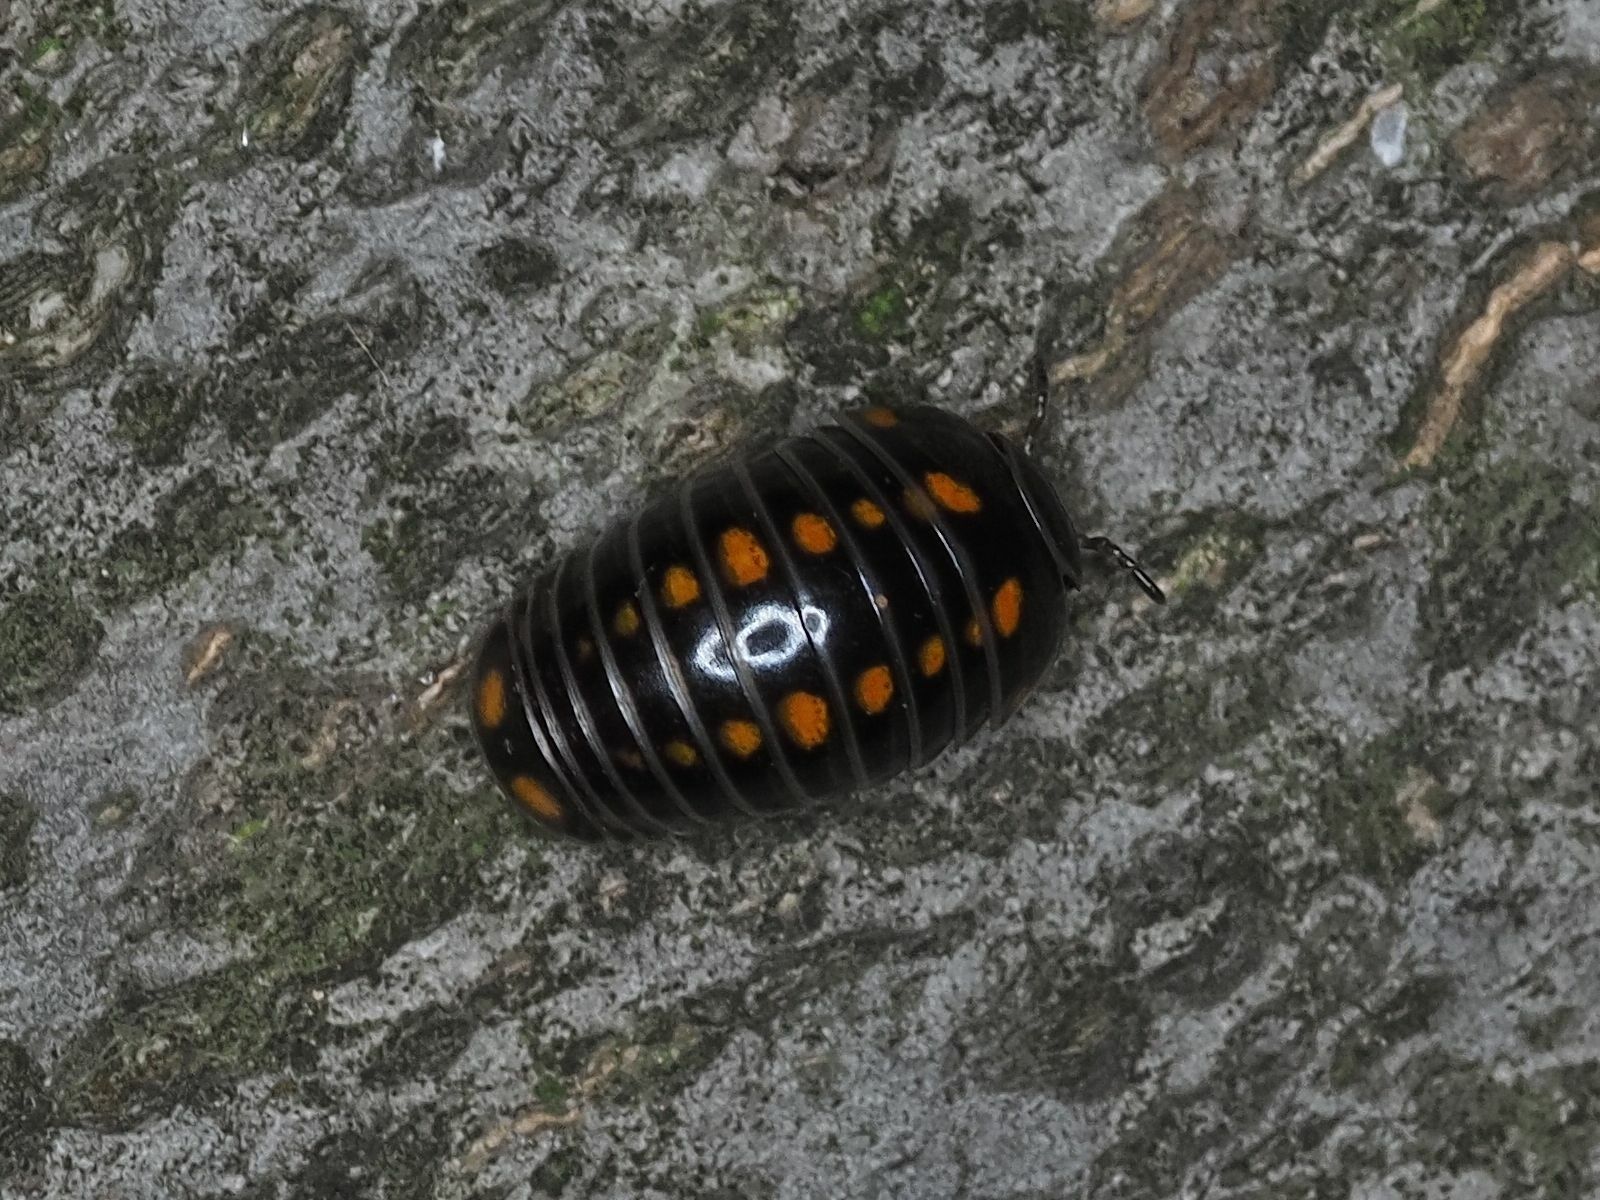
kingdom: Animalia
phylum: Arthropoda
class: Diplopoda
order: Glomerida
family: Glomeridae
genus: Glomeris
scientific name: Glomeris pustulata
